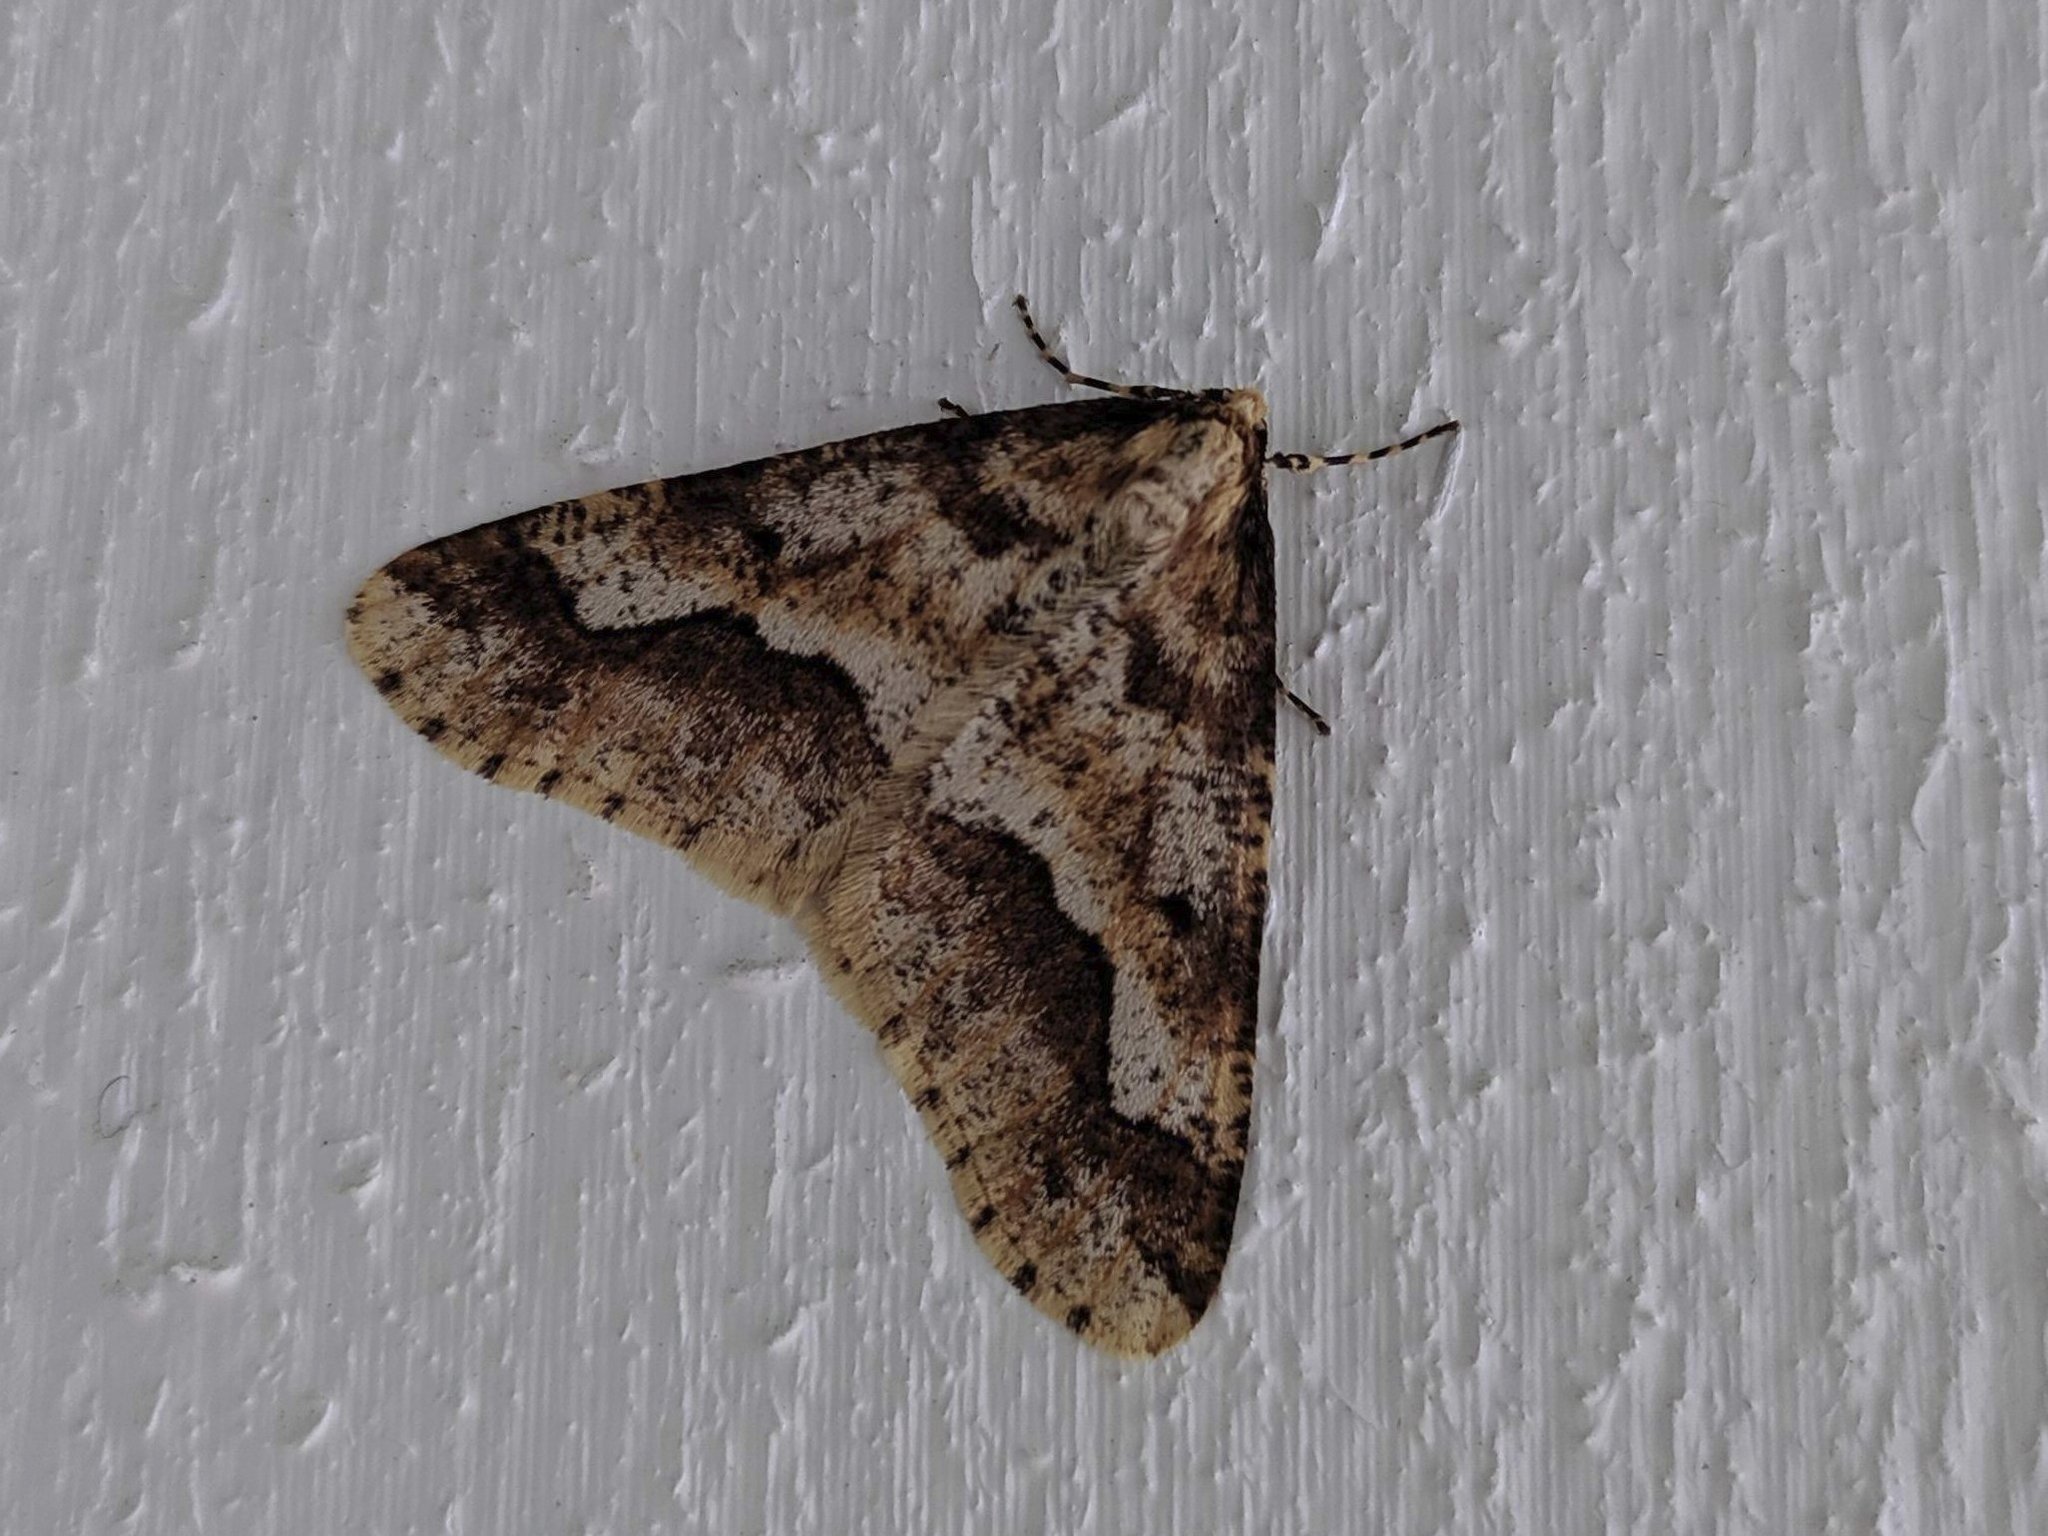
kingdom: Animalia
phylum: Arthropoda
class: Insecta
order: Lepidoptera
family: Geometridae
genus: Erannis
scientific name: Erannis defoliaria
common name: Mottled umber
